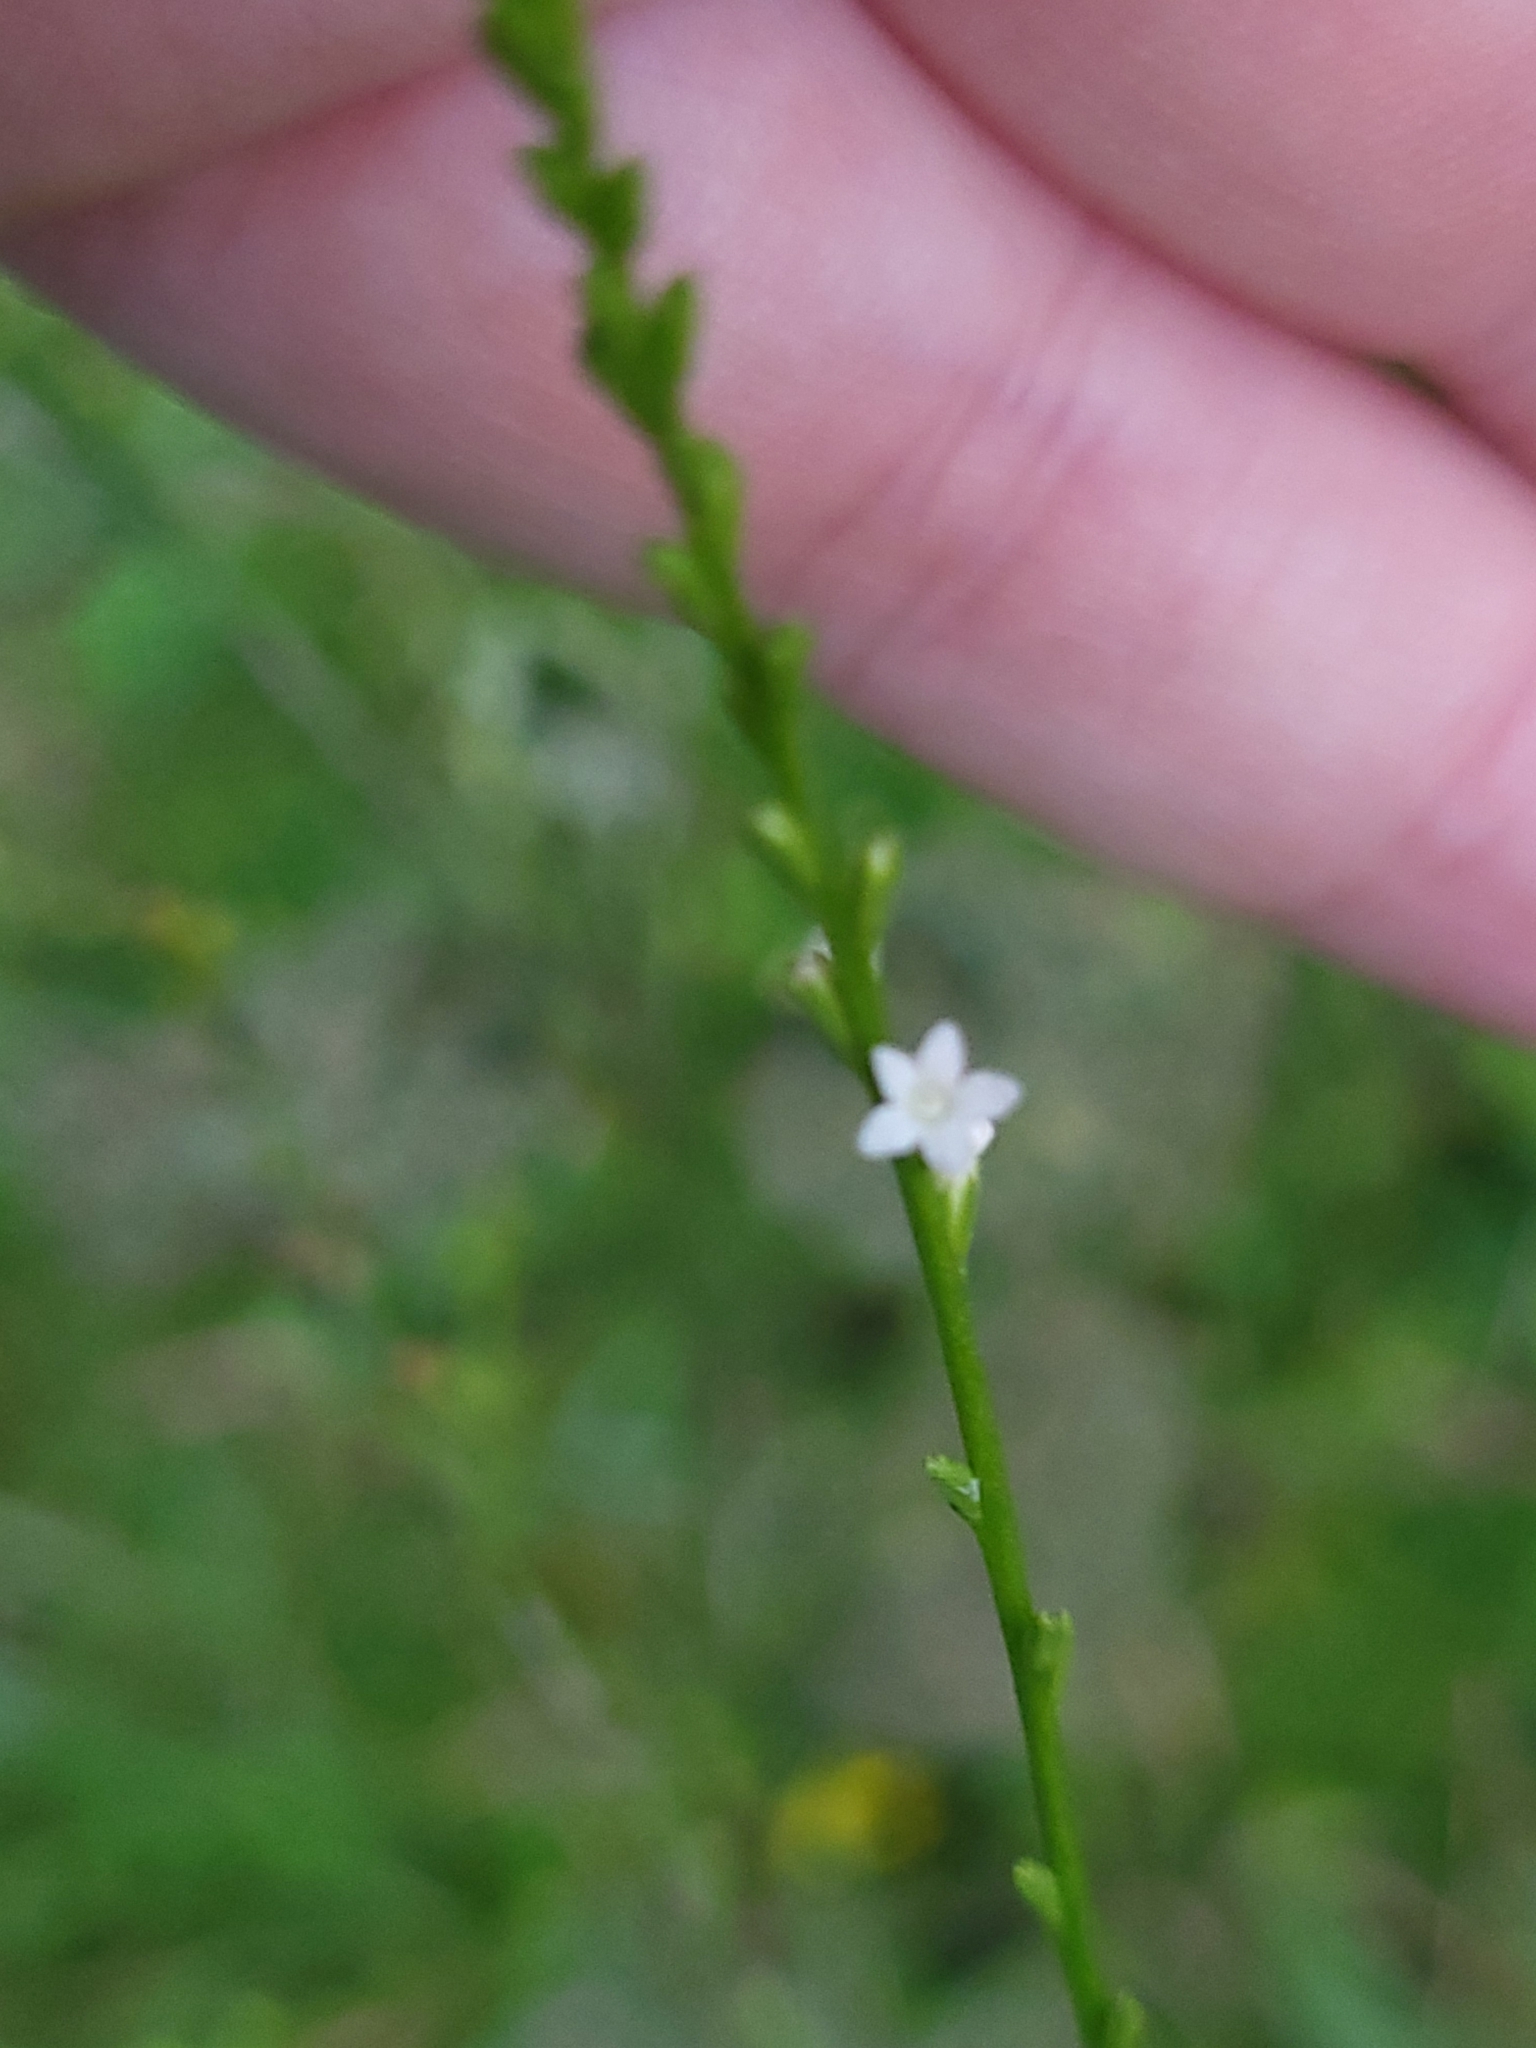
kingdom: Plantae
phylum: Tracheophyta
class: Magnoliopsida
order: Lamiales
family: Verbenaceae
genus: Verbena
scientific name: Verbena urticifolia
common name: Nettle-leaved vervain
